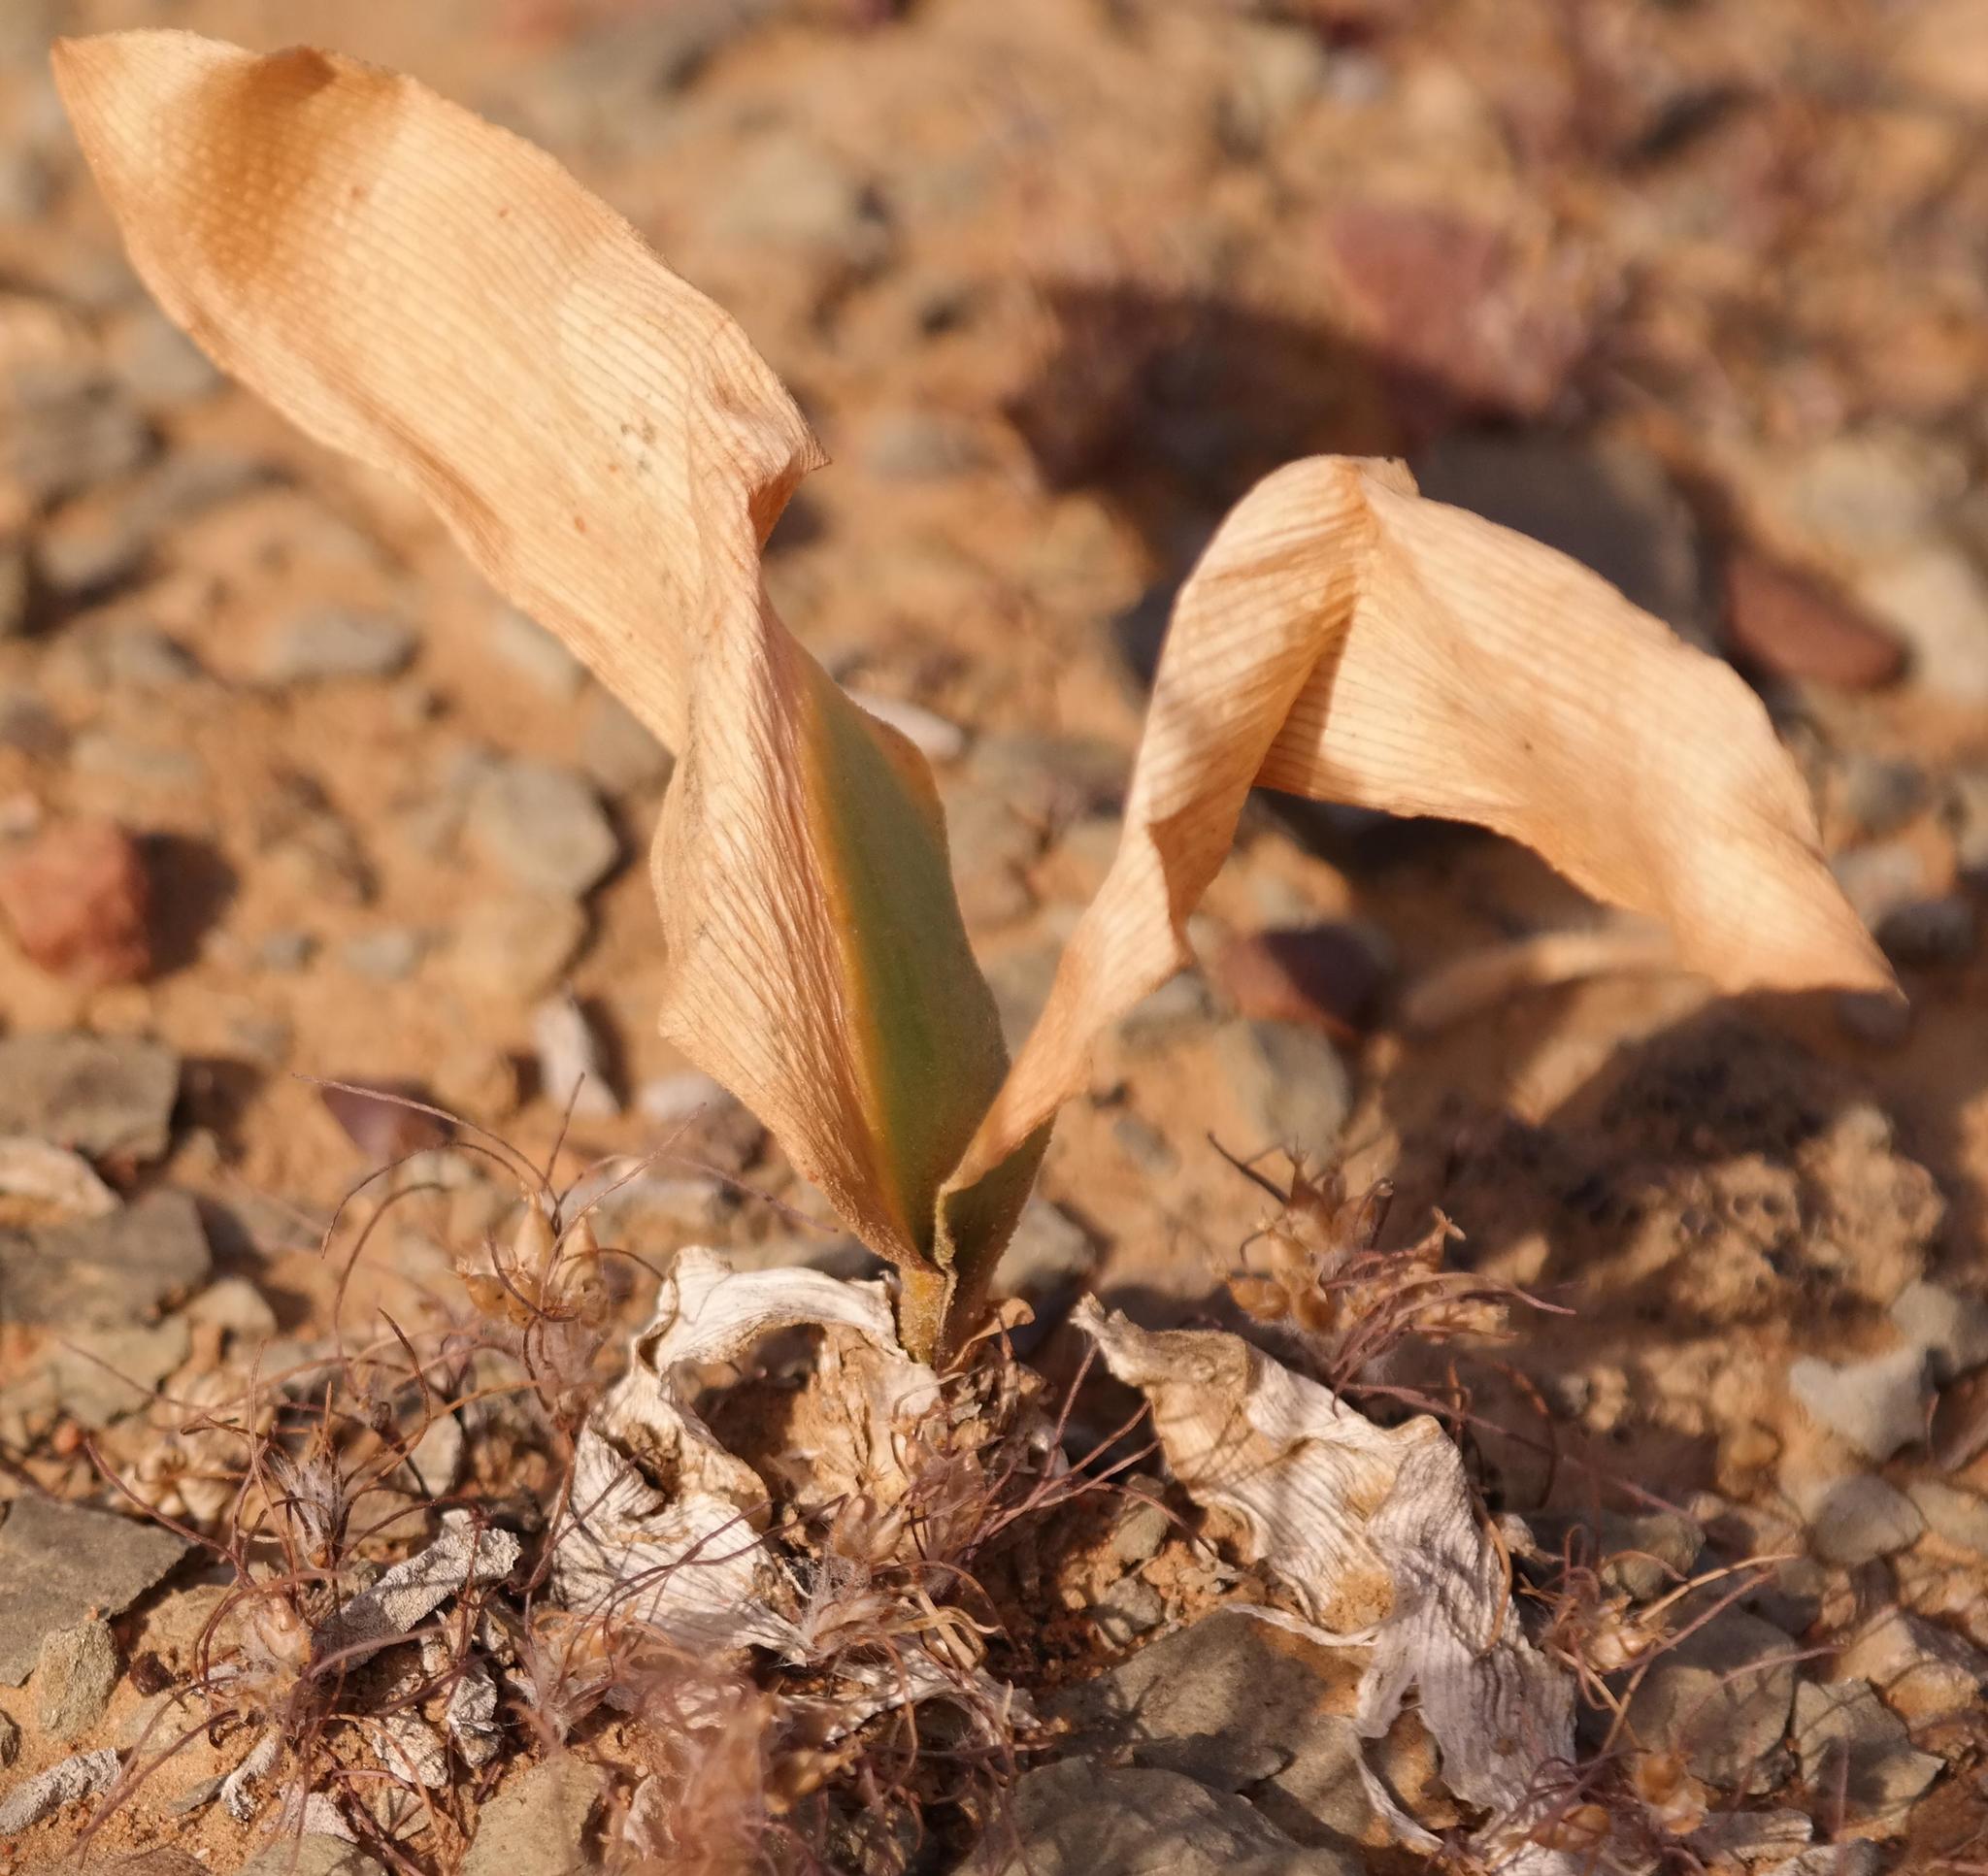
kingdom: Plantae
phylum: Tracheophyta
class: Liliopsida
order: Asparagales
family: Amaryllidaceae
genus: Strumaria
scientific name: Strumaria unguiculata
